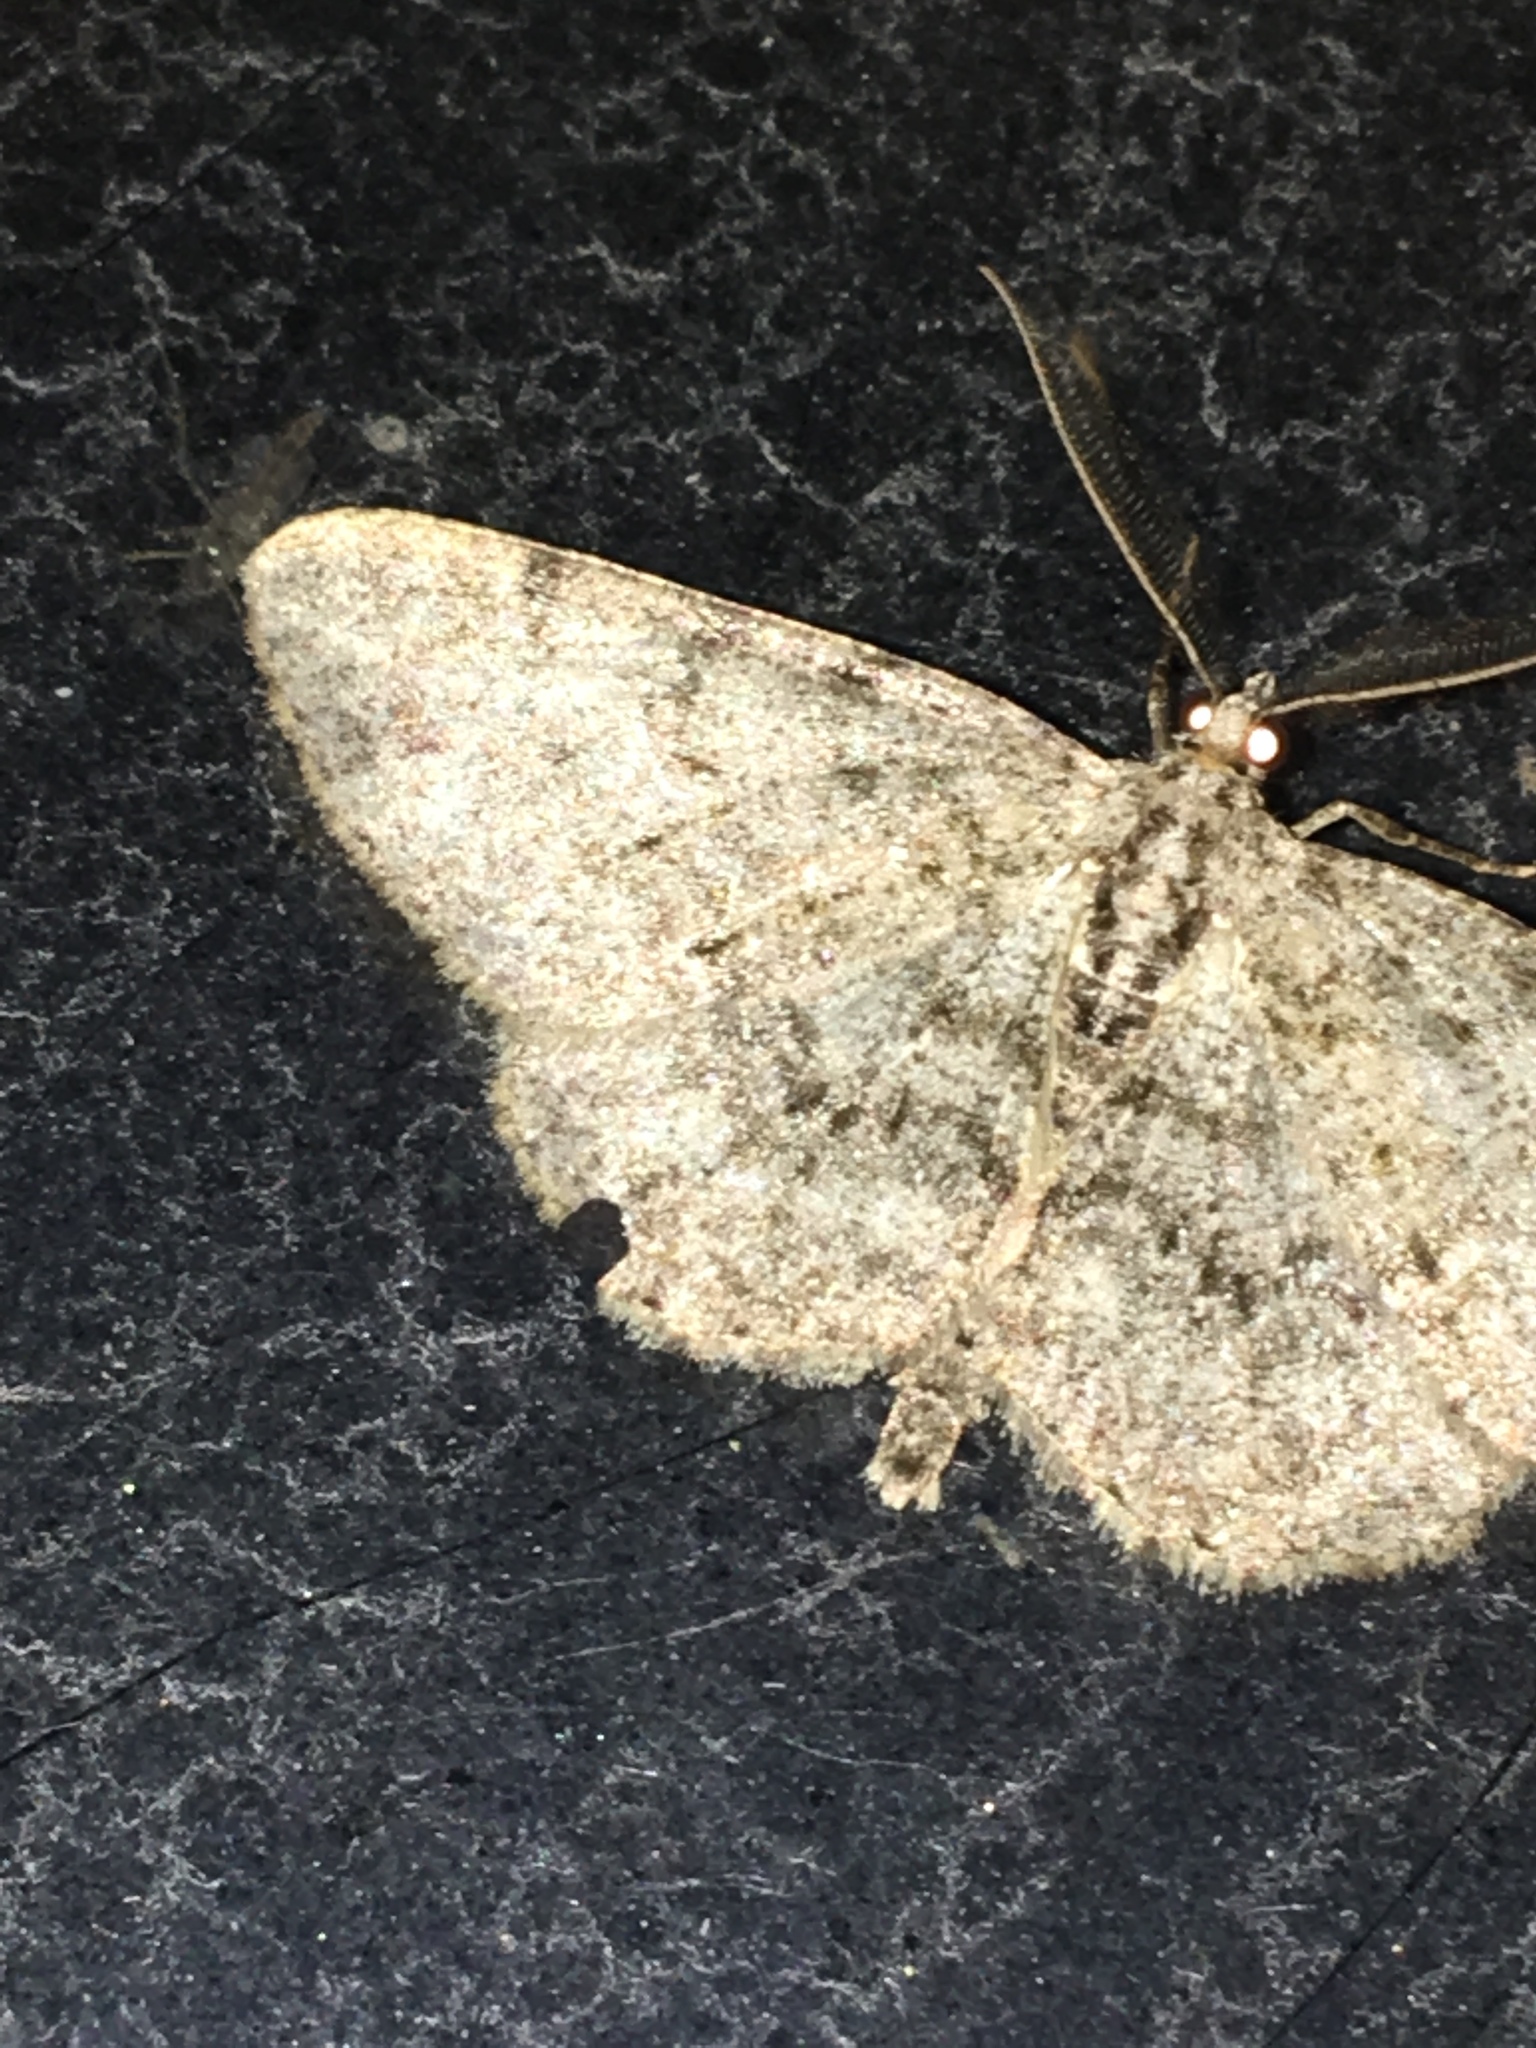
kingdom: Animalia
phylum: Arthropoda
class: Insecta
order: Lepidoptera
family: Geometridae
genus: Protoboarmia
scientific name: Protoboarmia porcelaria
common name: Porcelain gray
